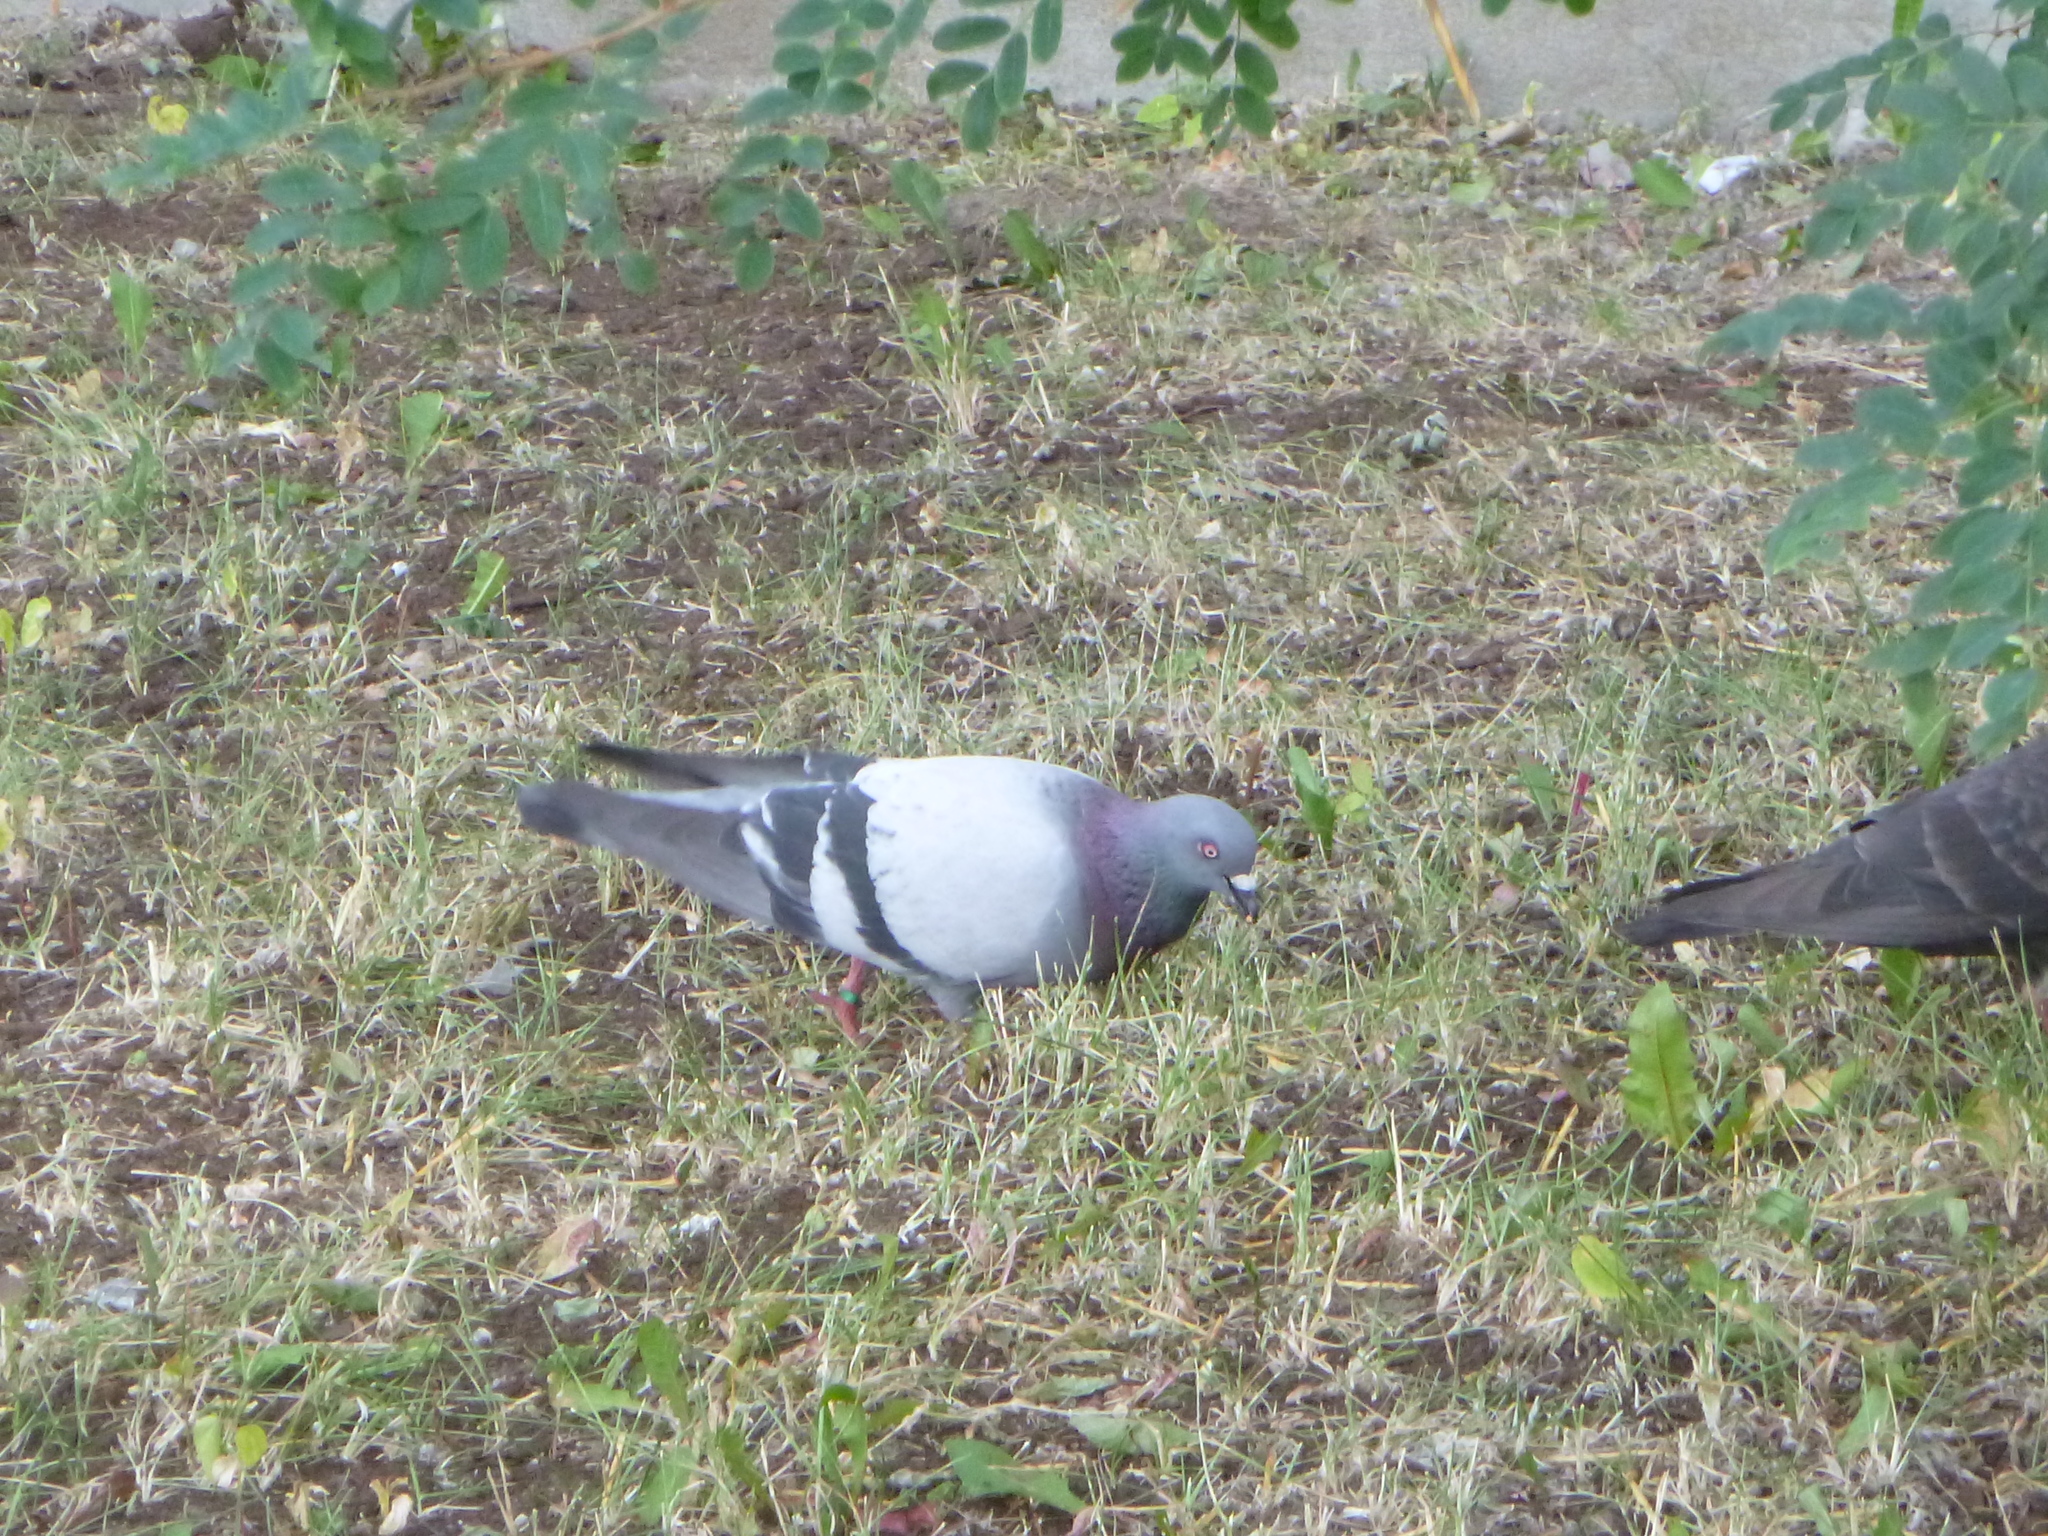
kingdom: Animalia
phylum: Chordata
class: Aves
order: Columbiformes
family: Columbidae
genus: Columba
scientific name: Columba livia
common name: Rock pigeon
